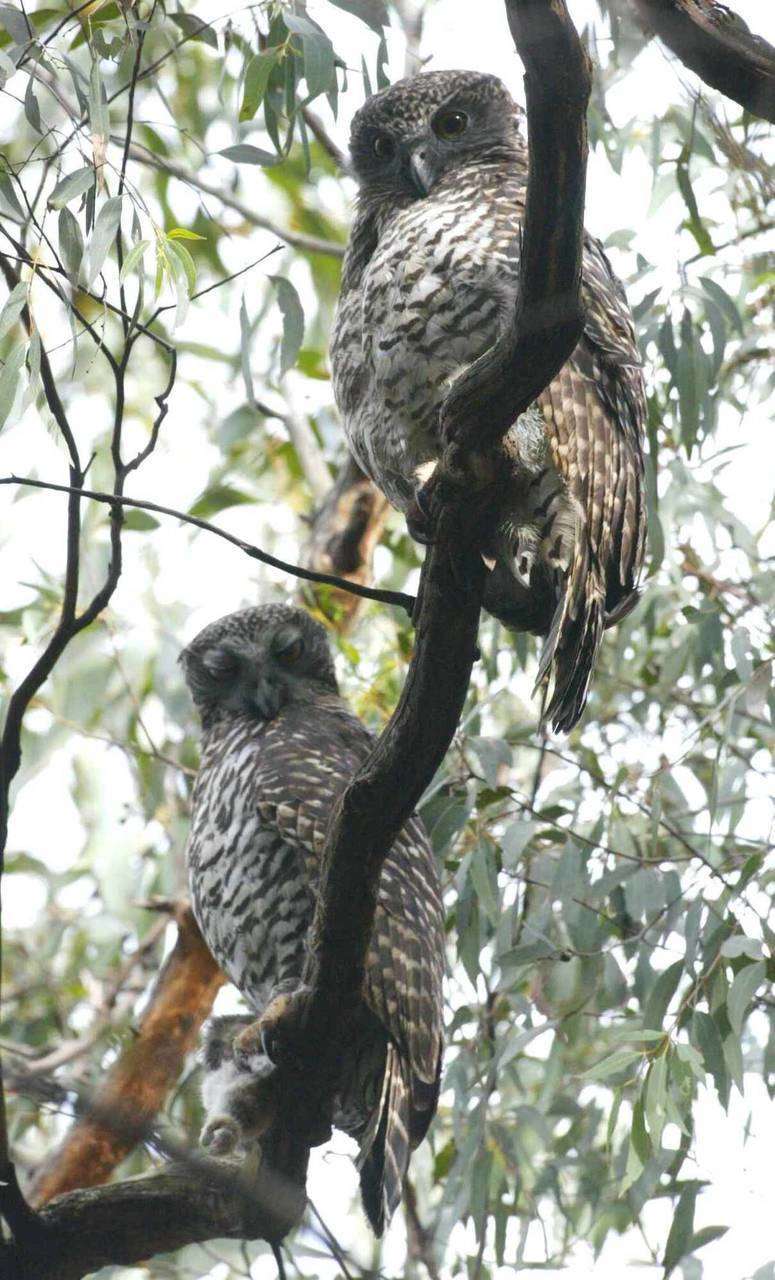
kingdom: Animalia
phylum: Chordata
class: Aves
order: Strigiformes
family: Strigidae
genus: Ninox
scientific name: Ninox strenua
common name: Powerful owl
